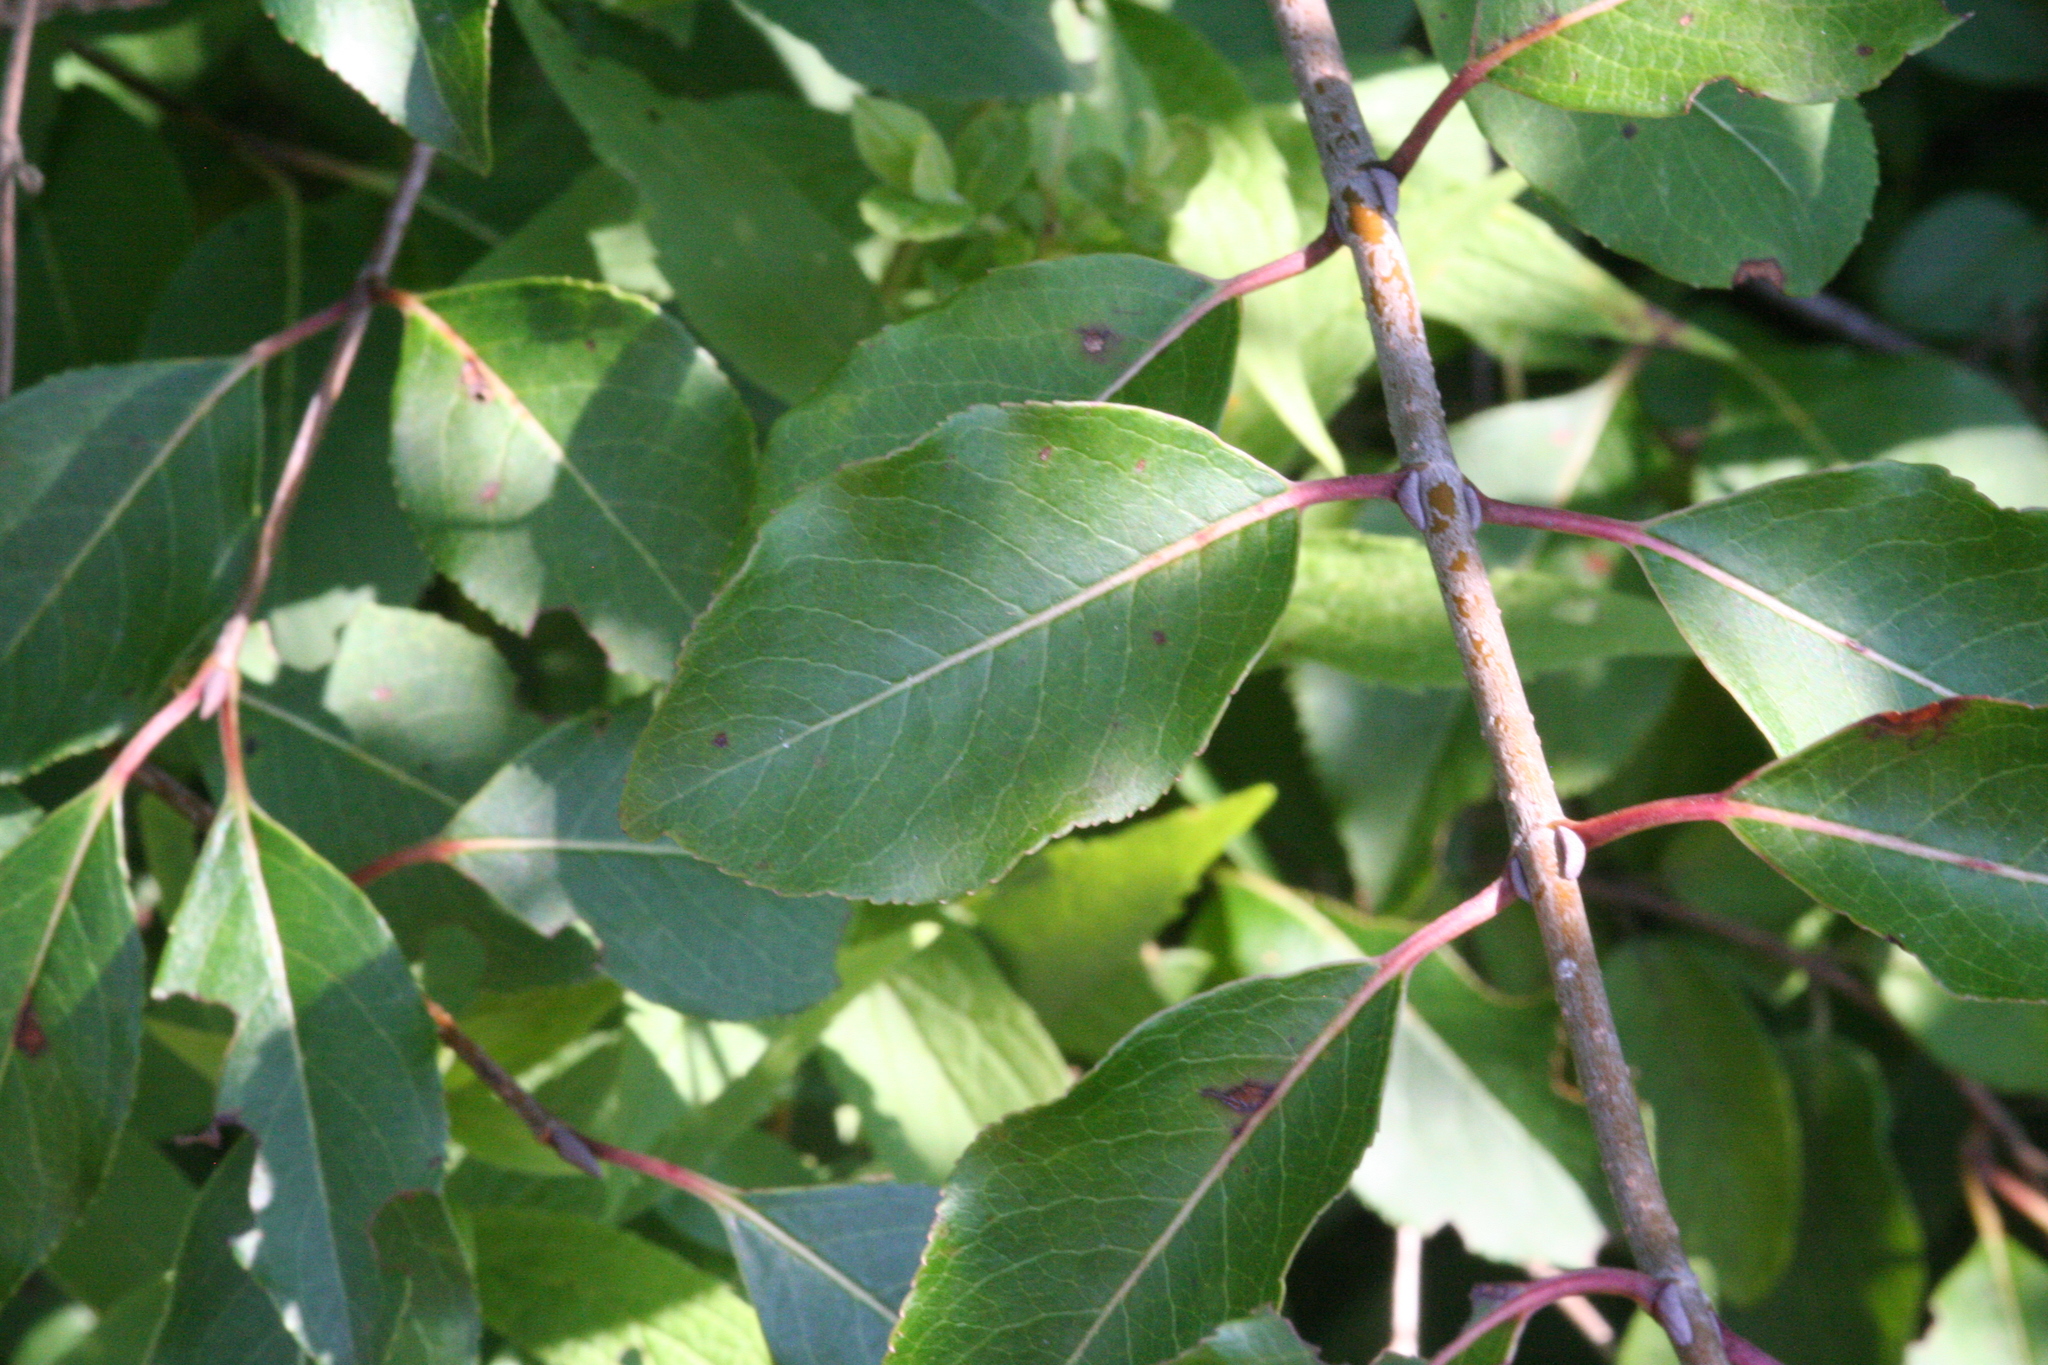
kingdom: Plantae
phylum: Tracheophyta
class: Magnoliopsida
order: Dipsacales
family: Viburnaceae
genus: Viburnum
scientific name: Viburnum prunifolium
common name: Black haw
